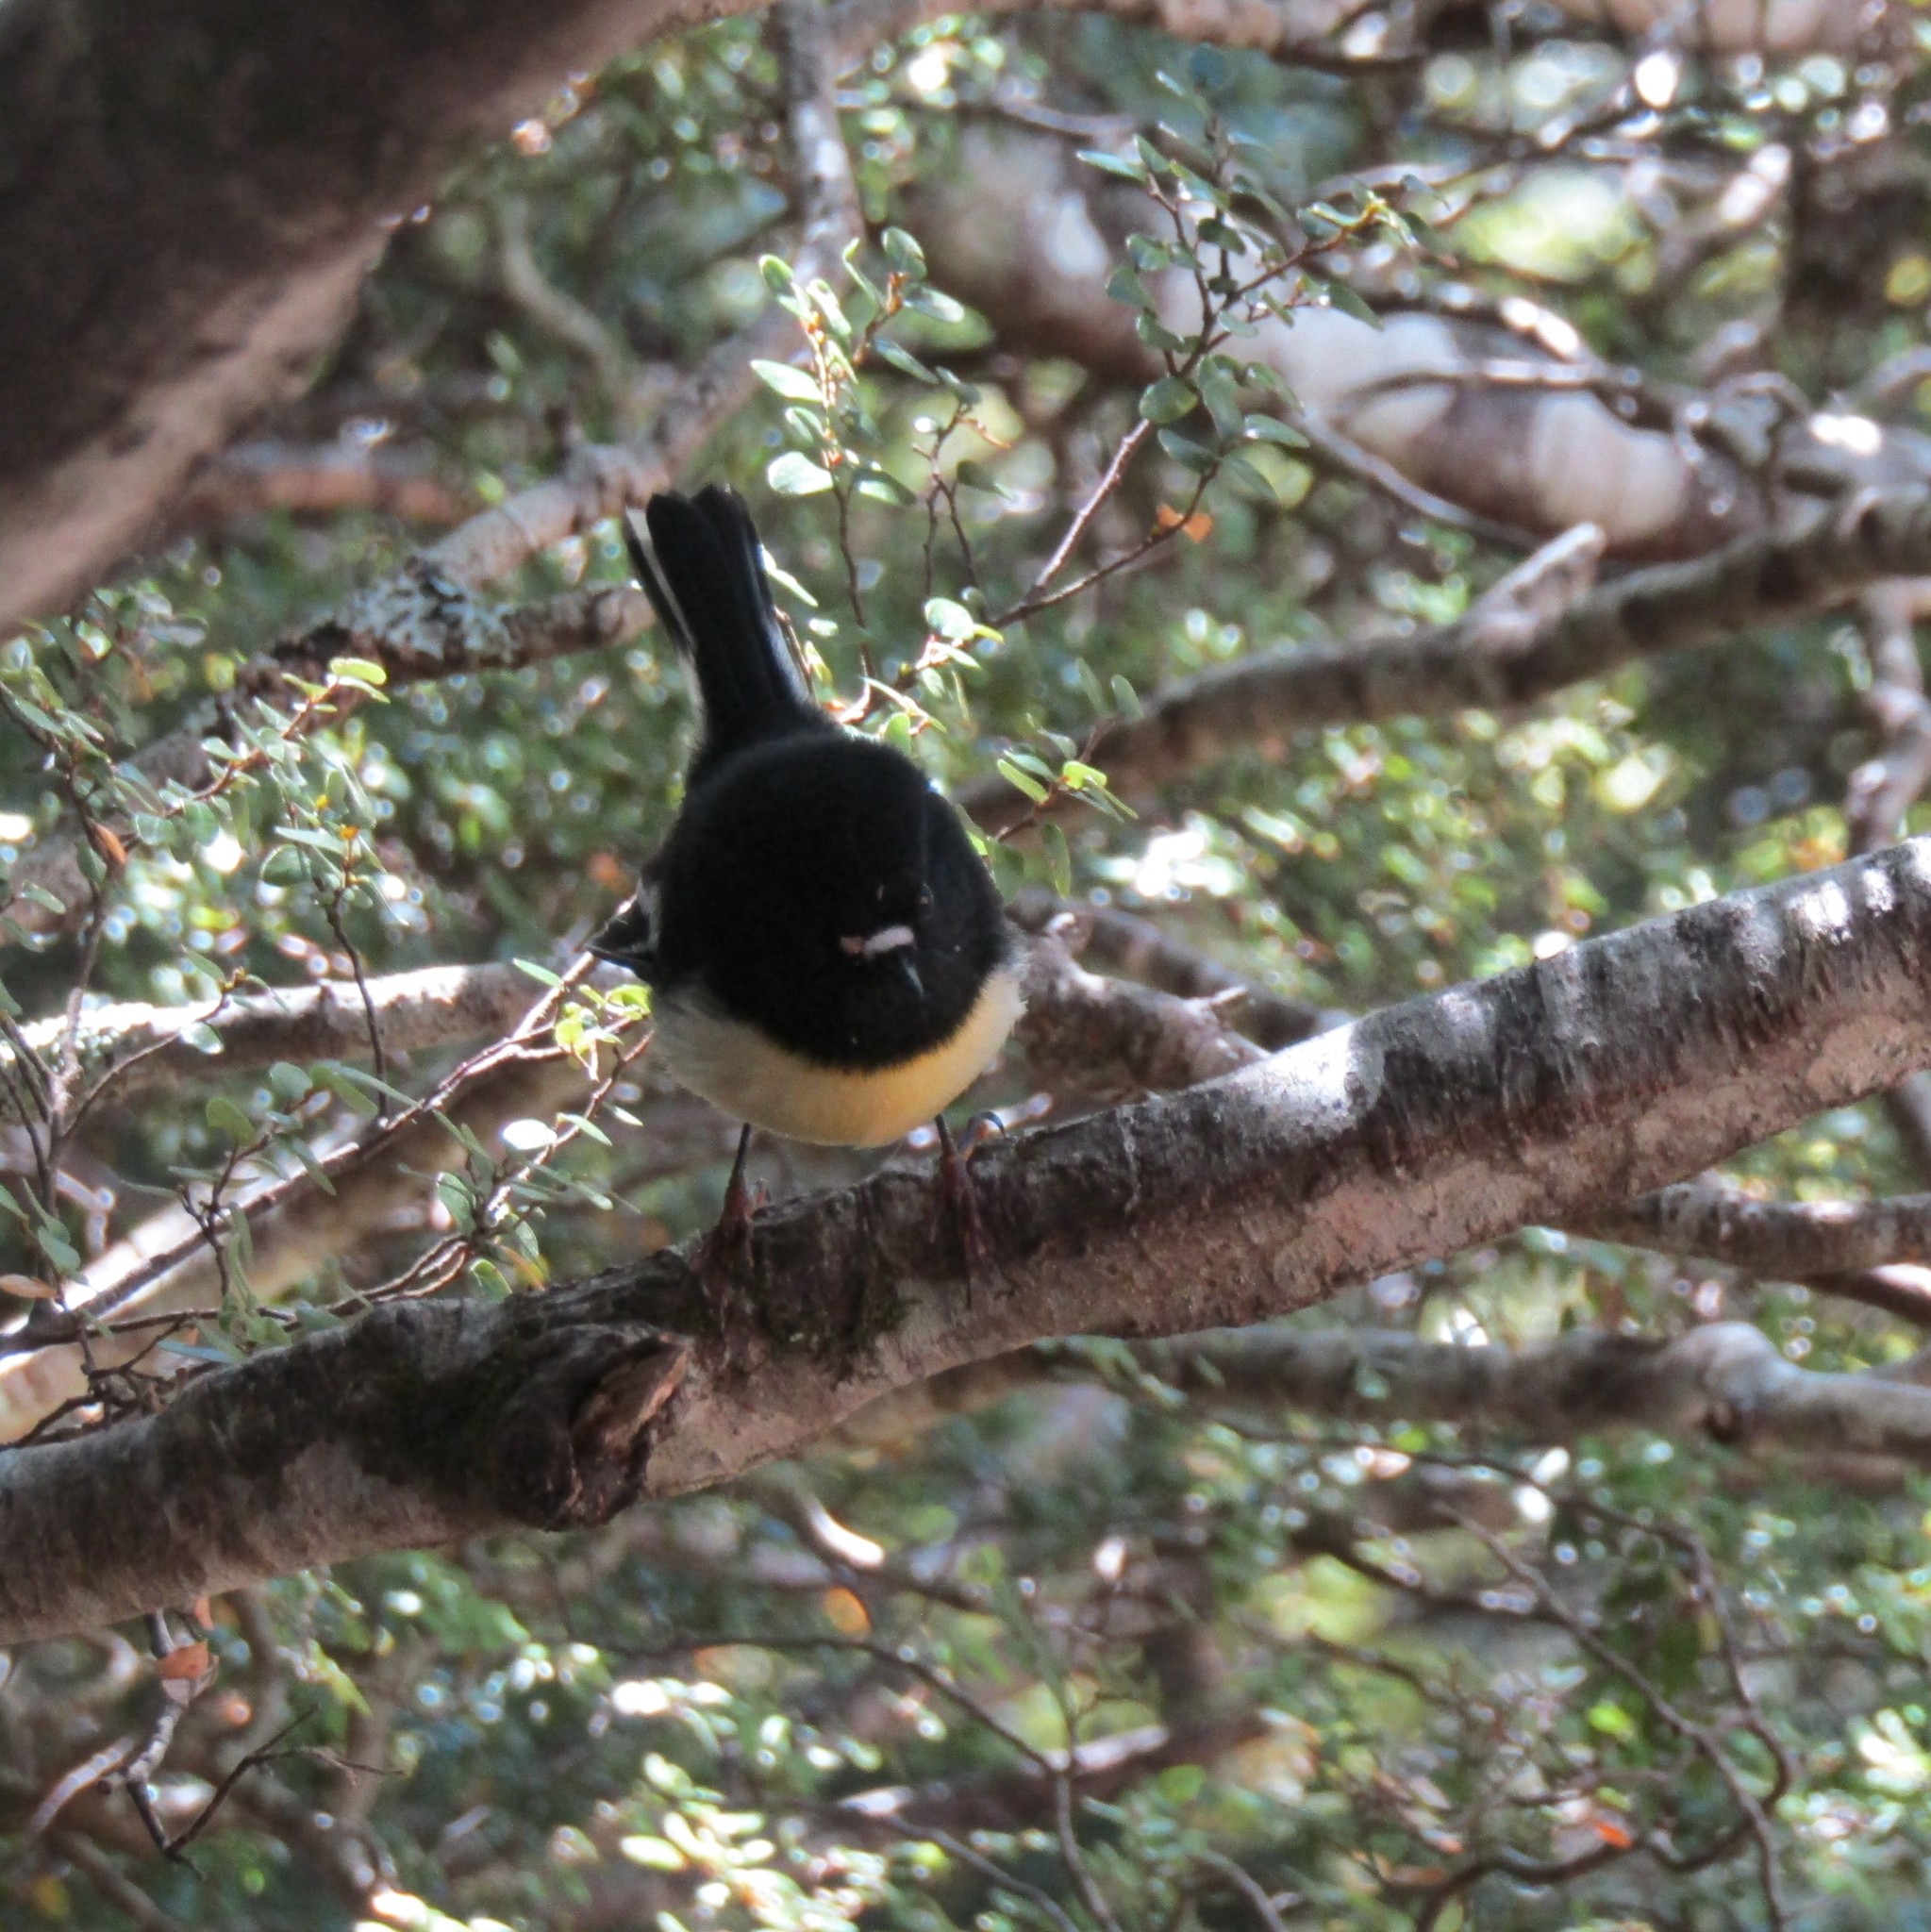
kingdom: Animalia
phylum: Chordata
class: Aves
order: Passeriformes
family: Petroicidae
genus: Petroica
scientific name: Petroica macrocephala
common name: Tomtit
